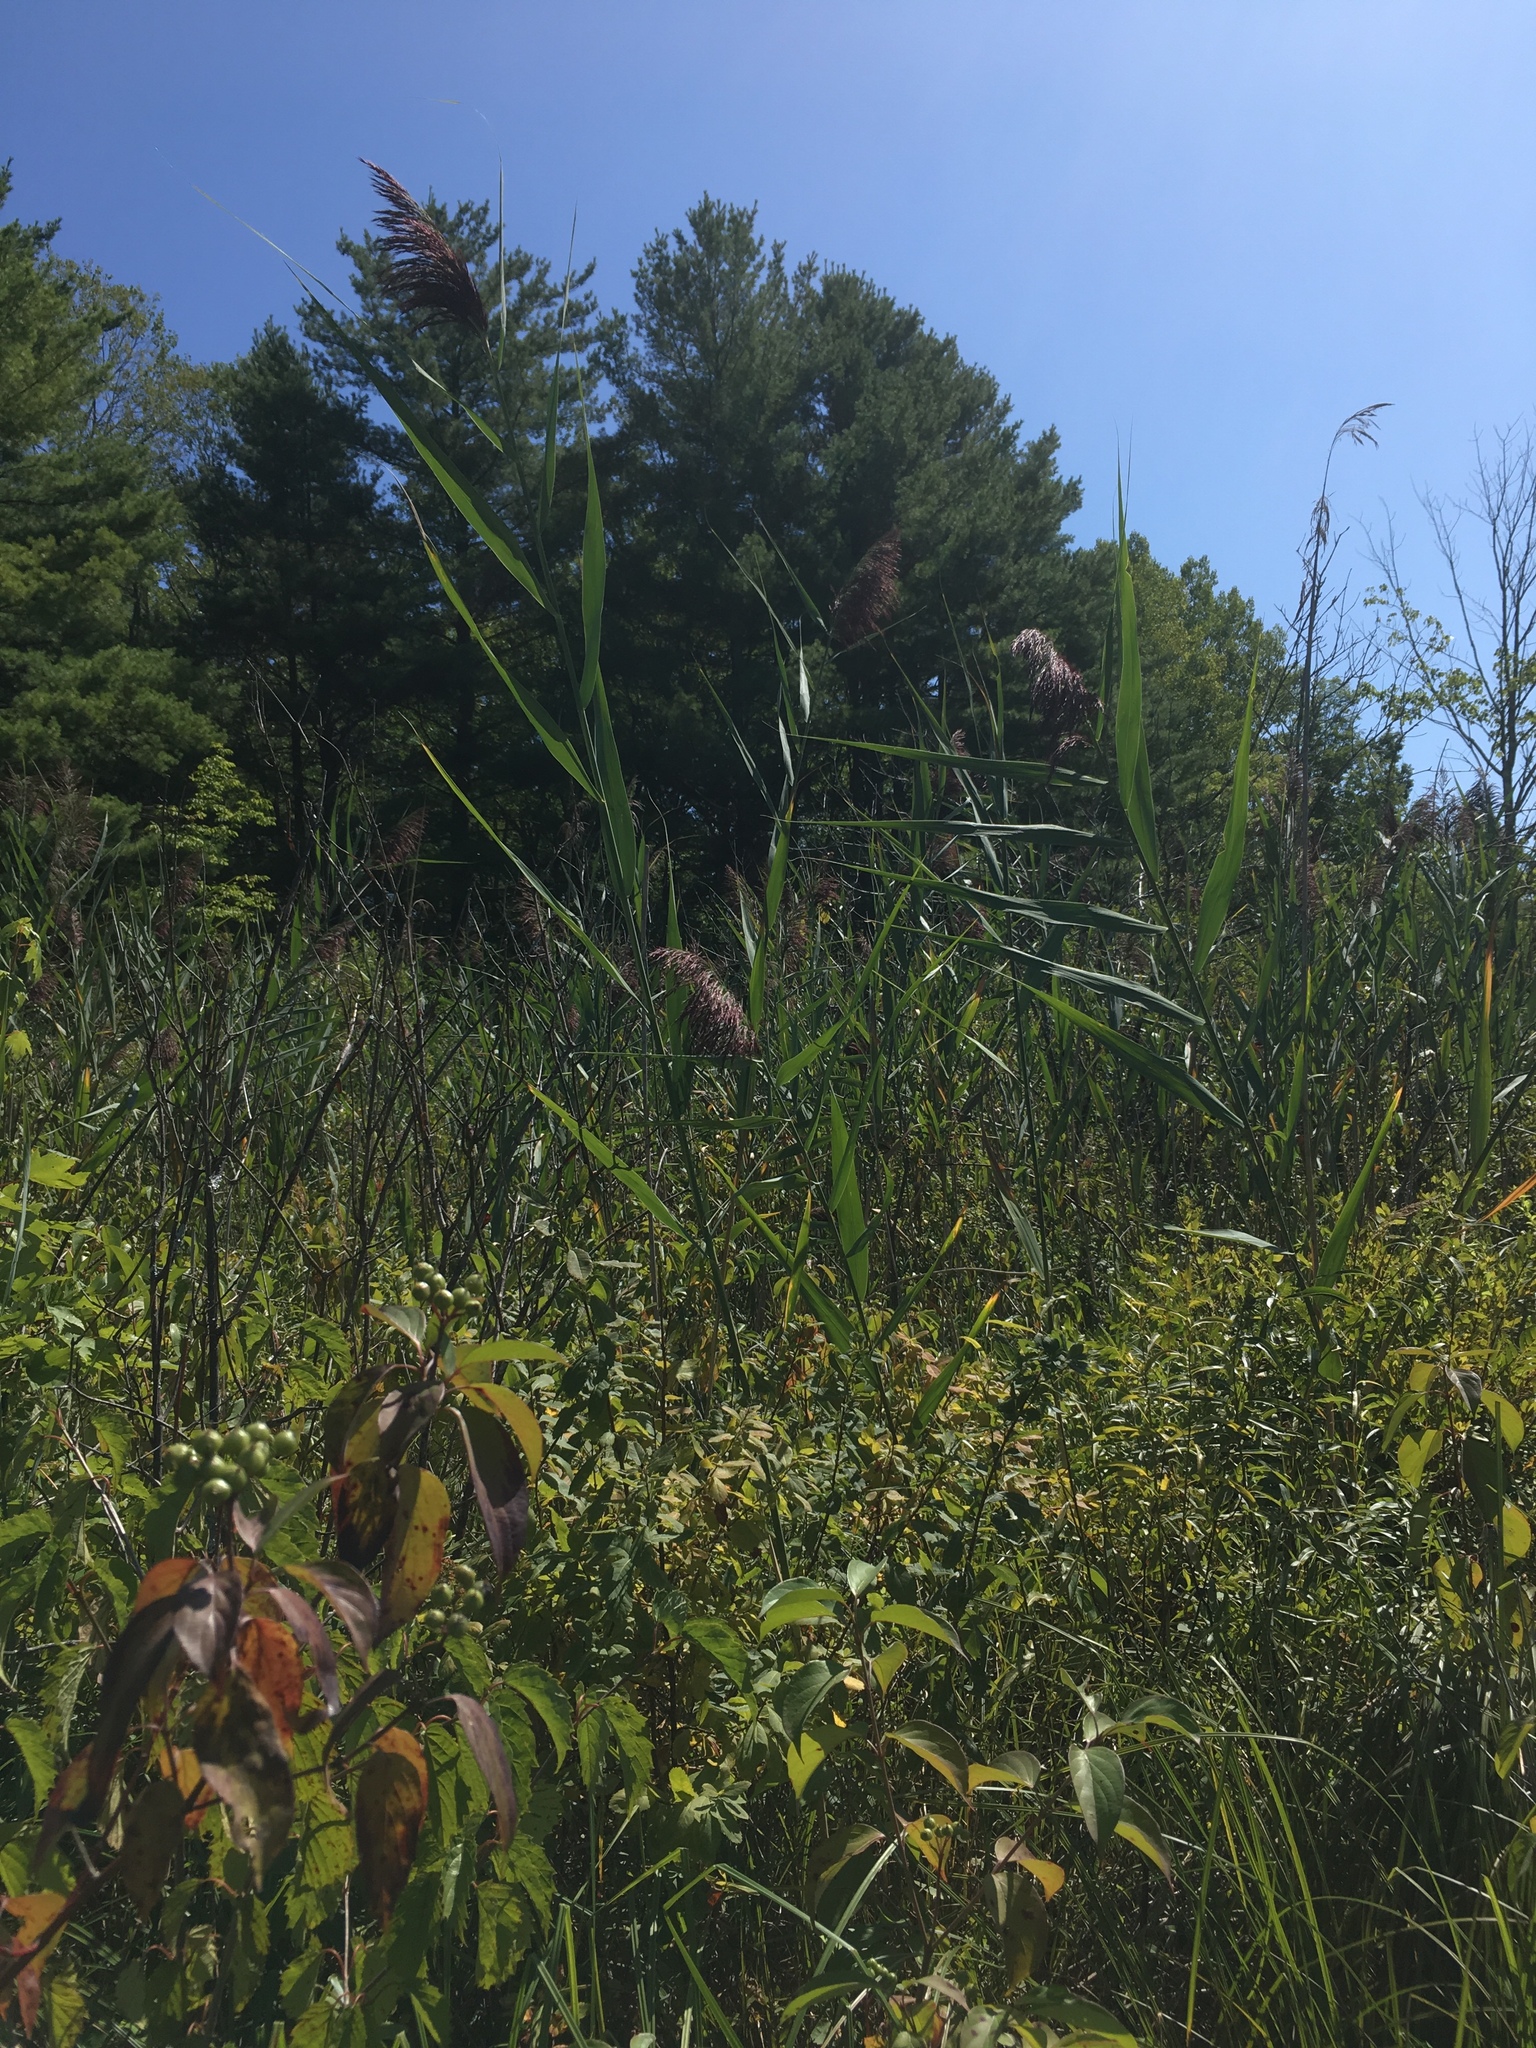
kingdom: Plantae
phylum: Tracheophyta
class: Liliopsida
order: Poales
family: Poaceae
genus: Phragmites
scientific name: Phragmites australis
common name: Common reed
